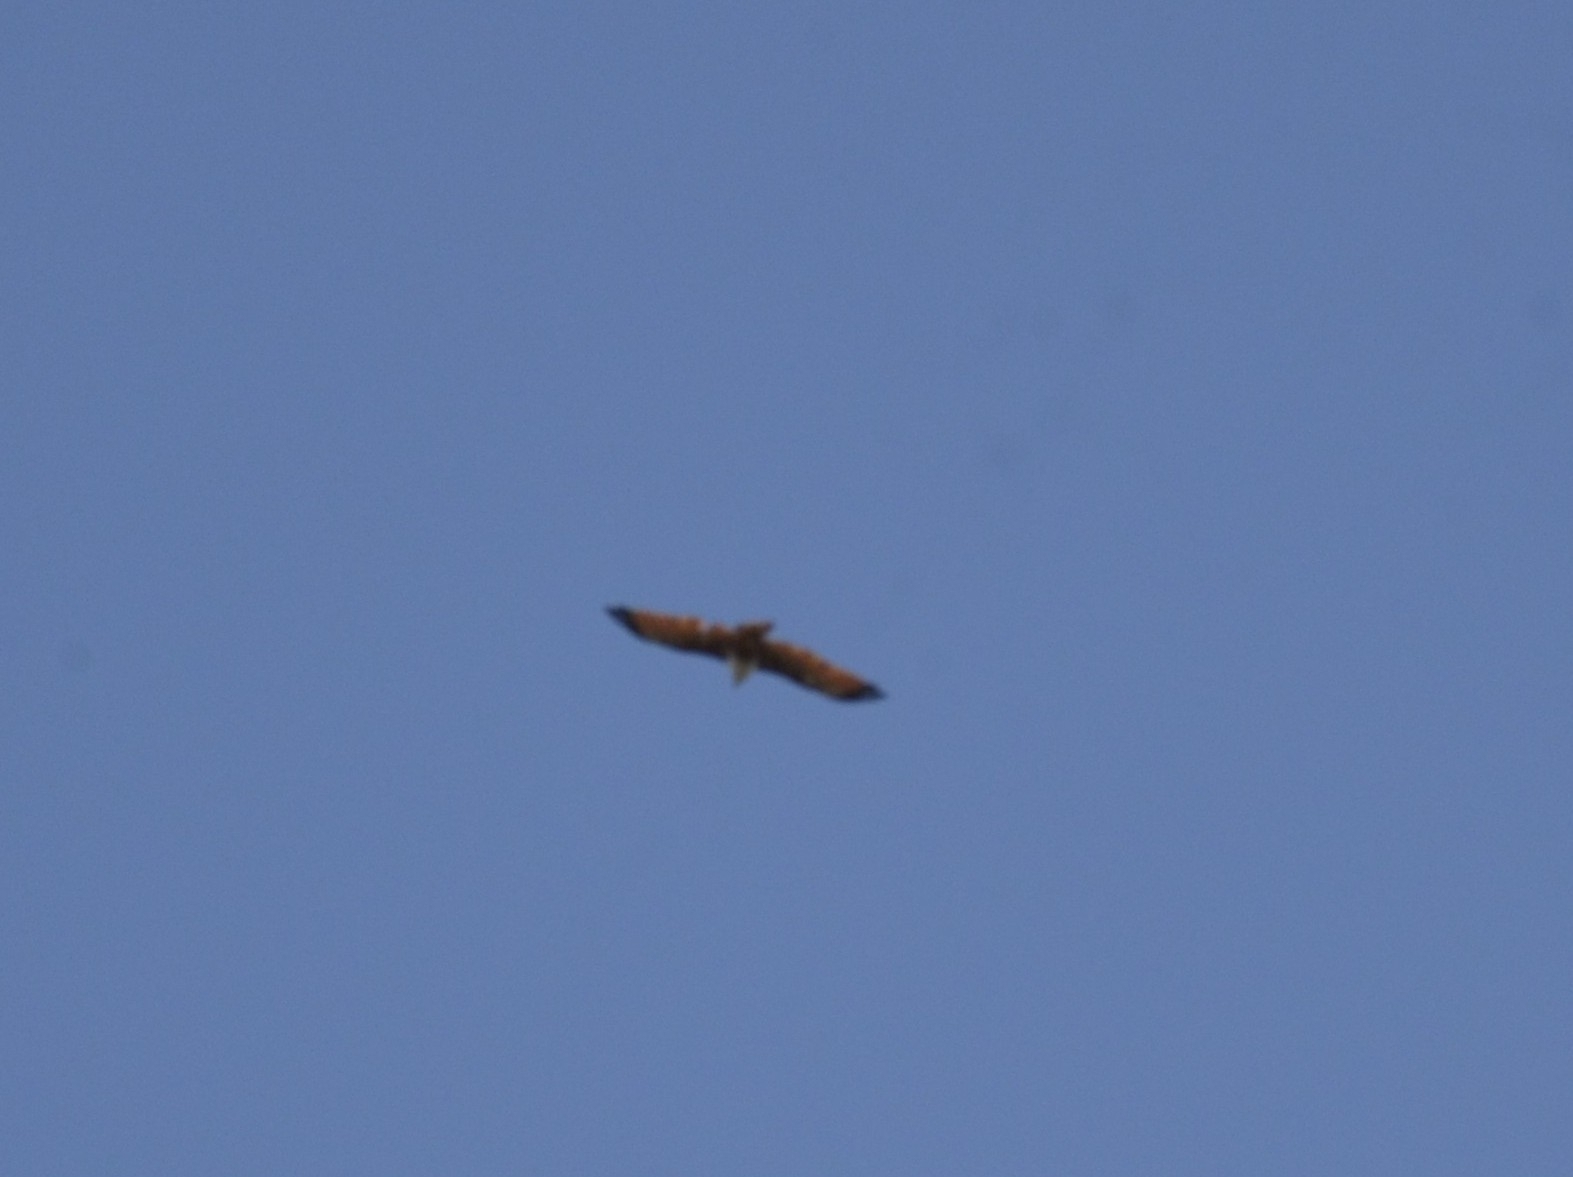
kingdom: Animalia
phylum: Chordata
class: Aves
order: Accipitriformes
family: Accipitridae
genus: Haliastur
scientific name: Haliastur indus
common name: Brahminy kite
